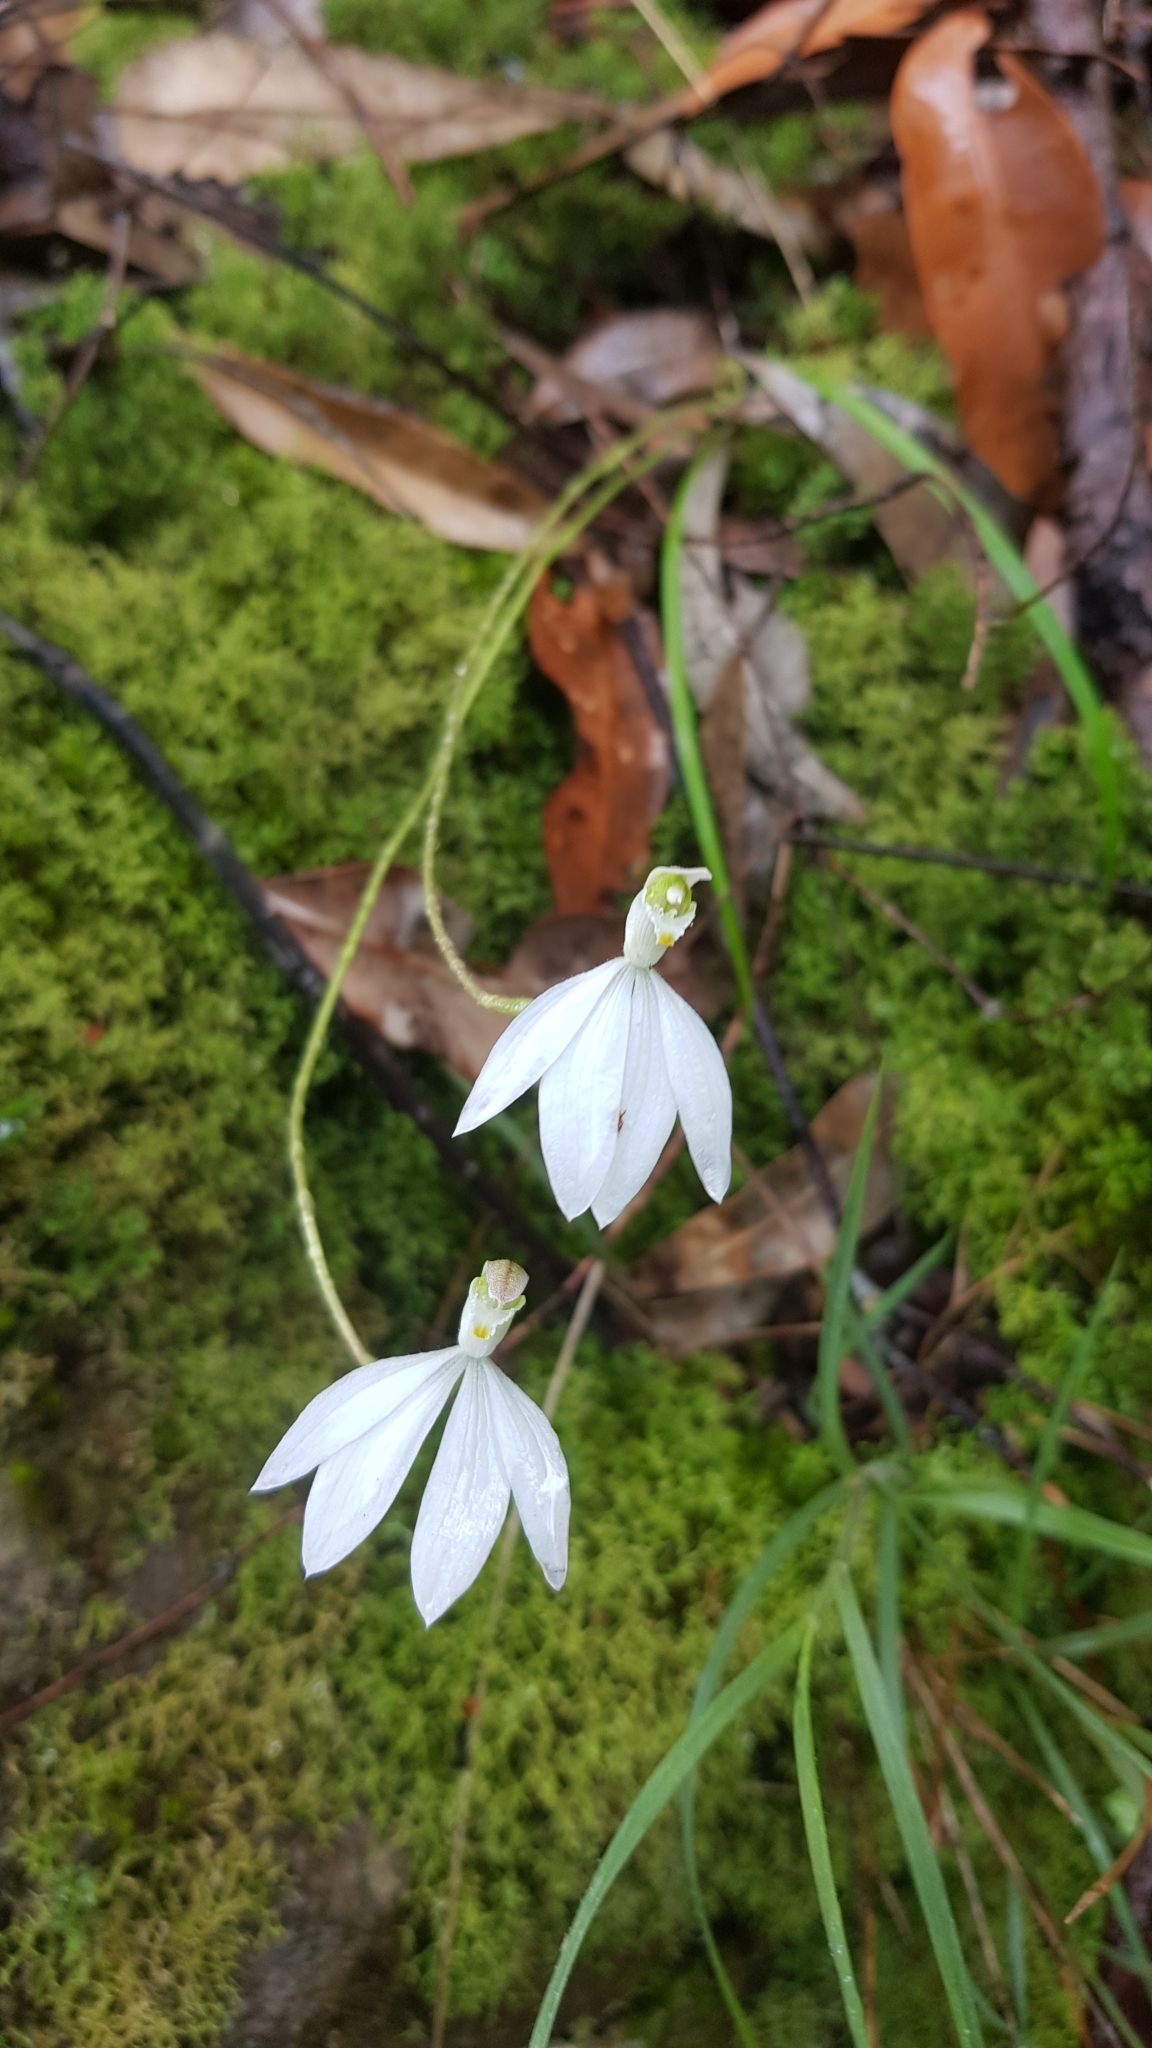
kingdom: Plantae
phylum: Tracheophyta
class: Liliopsida
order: Asparagales
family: Orchidaceae
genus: Caladenia
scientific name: Caladenia catenata
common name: White caladenia
